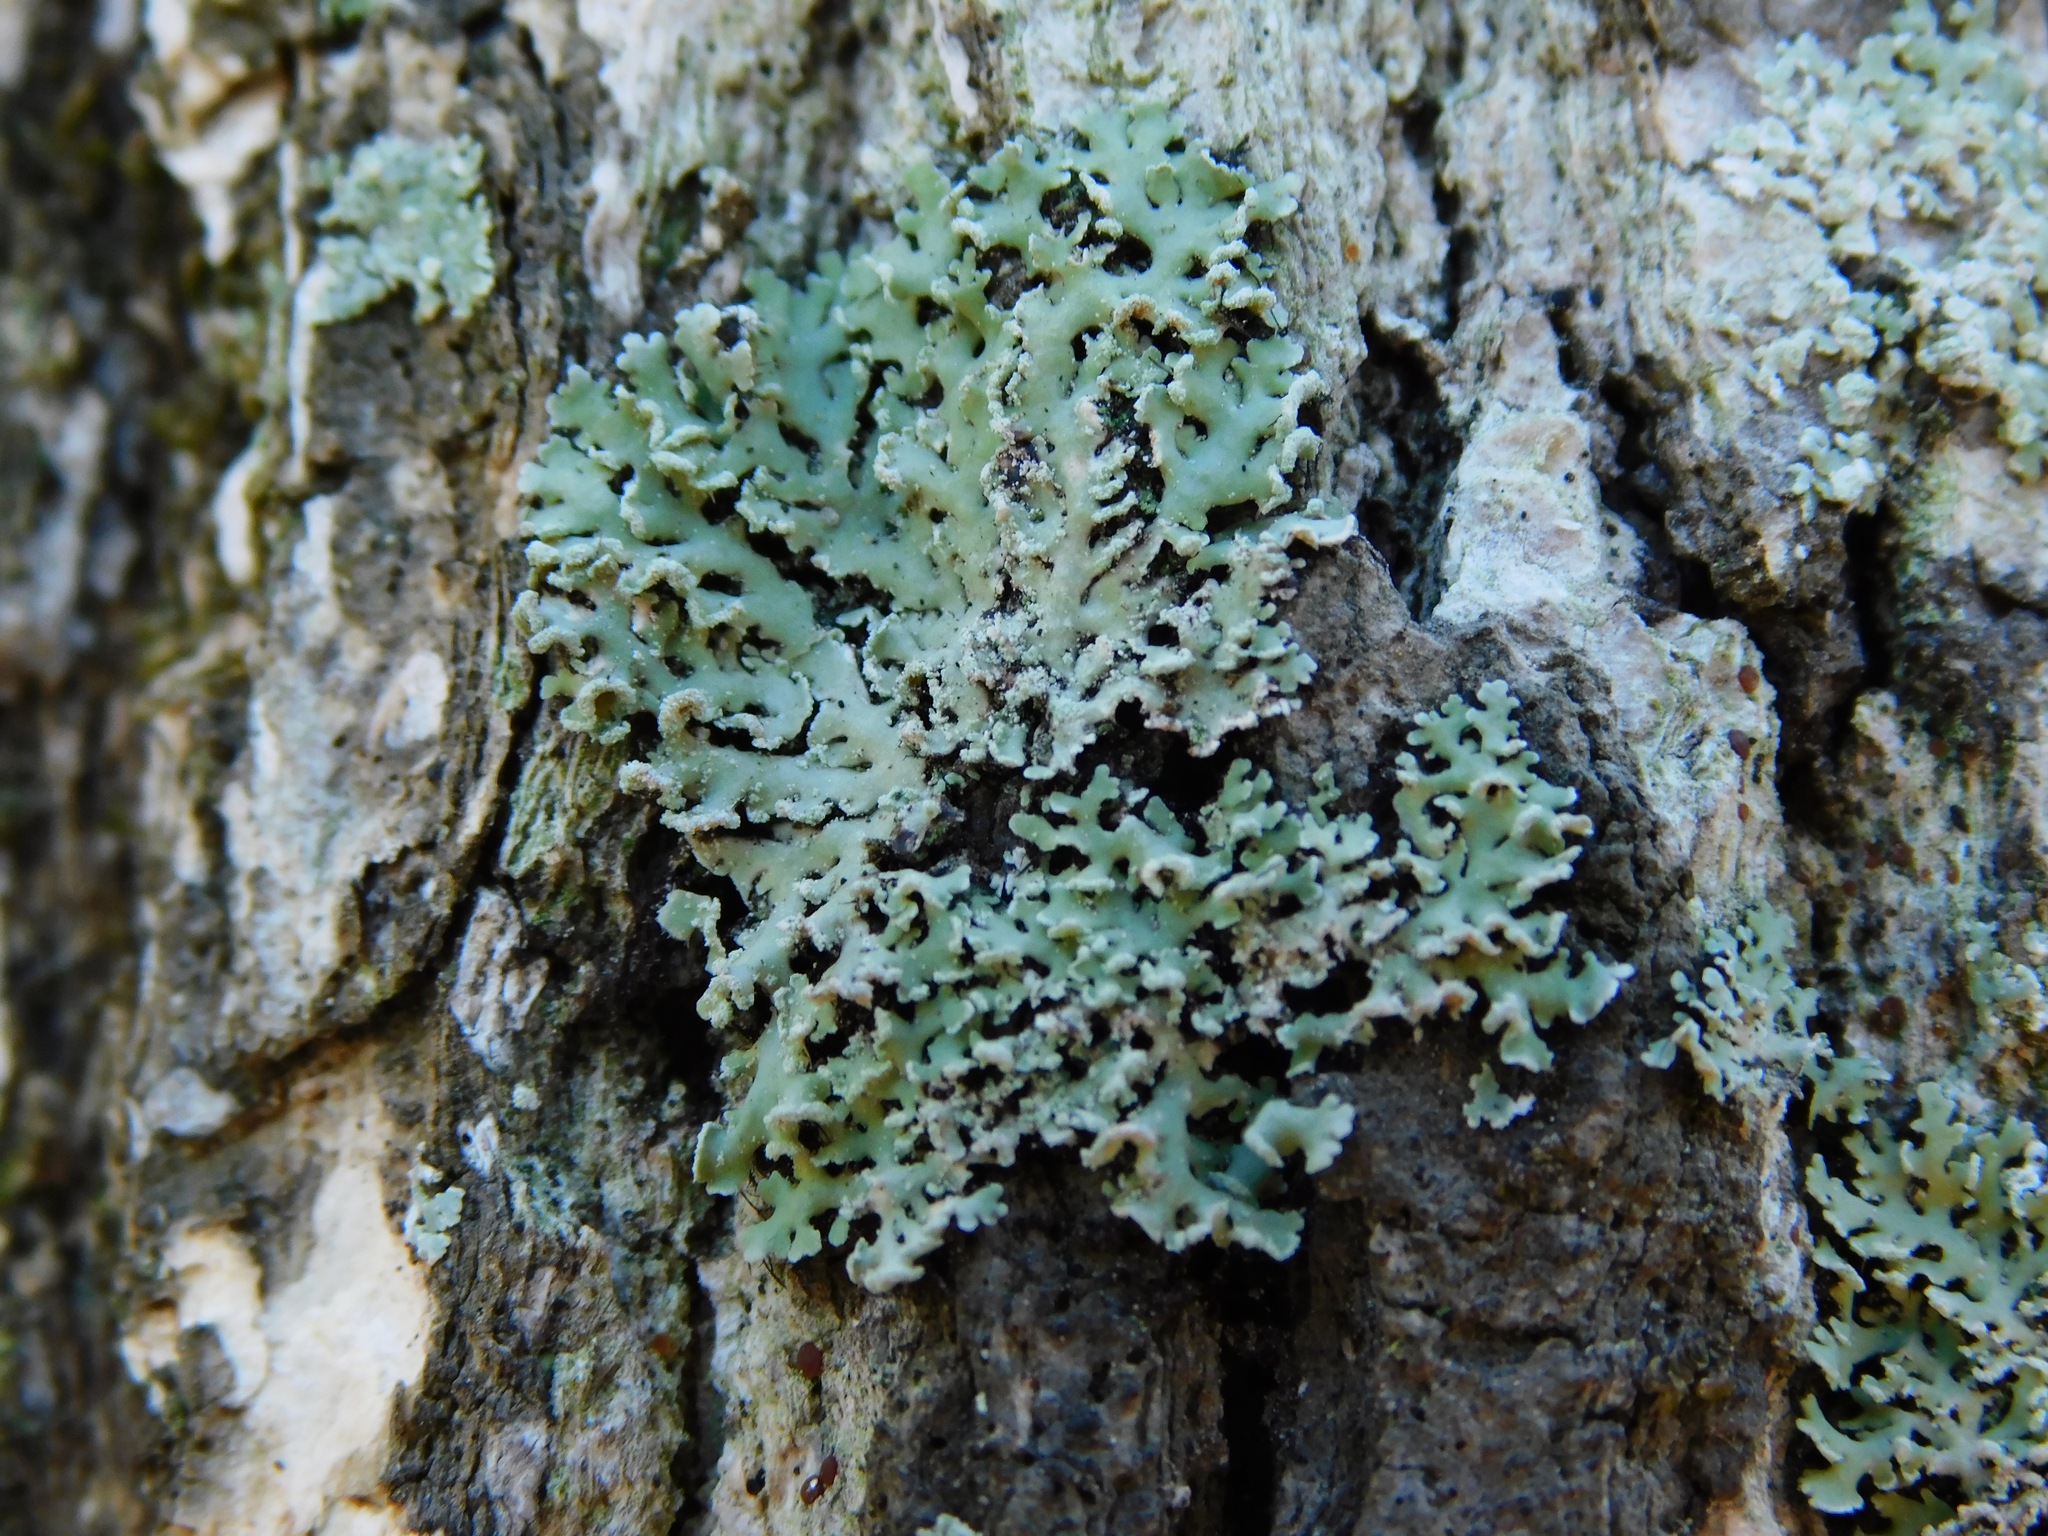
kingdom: Fungi
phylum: Ascomycota
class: Lecanoromycetes
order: Caliciales
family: Physciaceae
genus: Polyblastidium
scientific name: Polyblastidium japonicum
